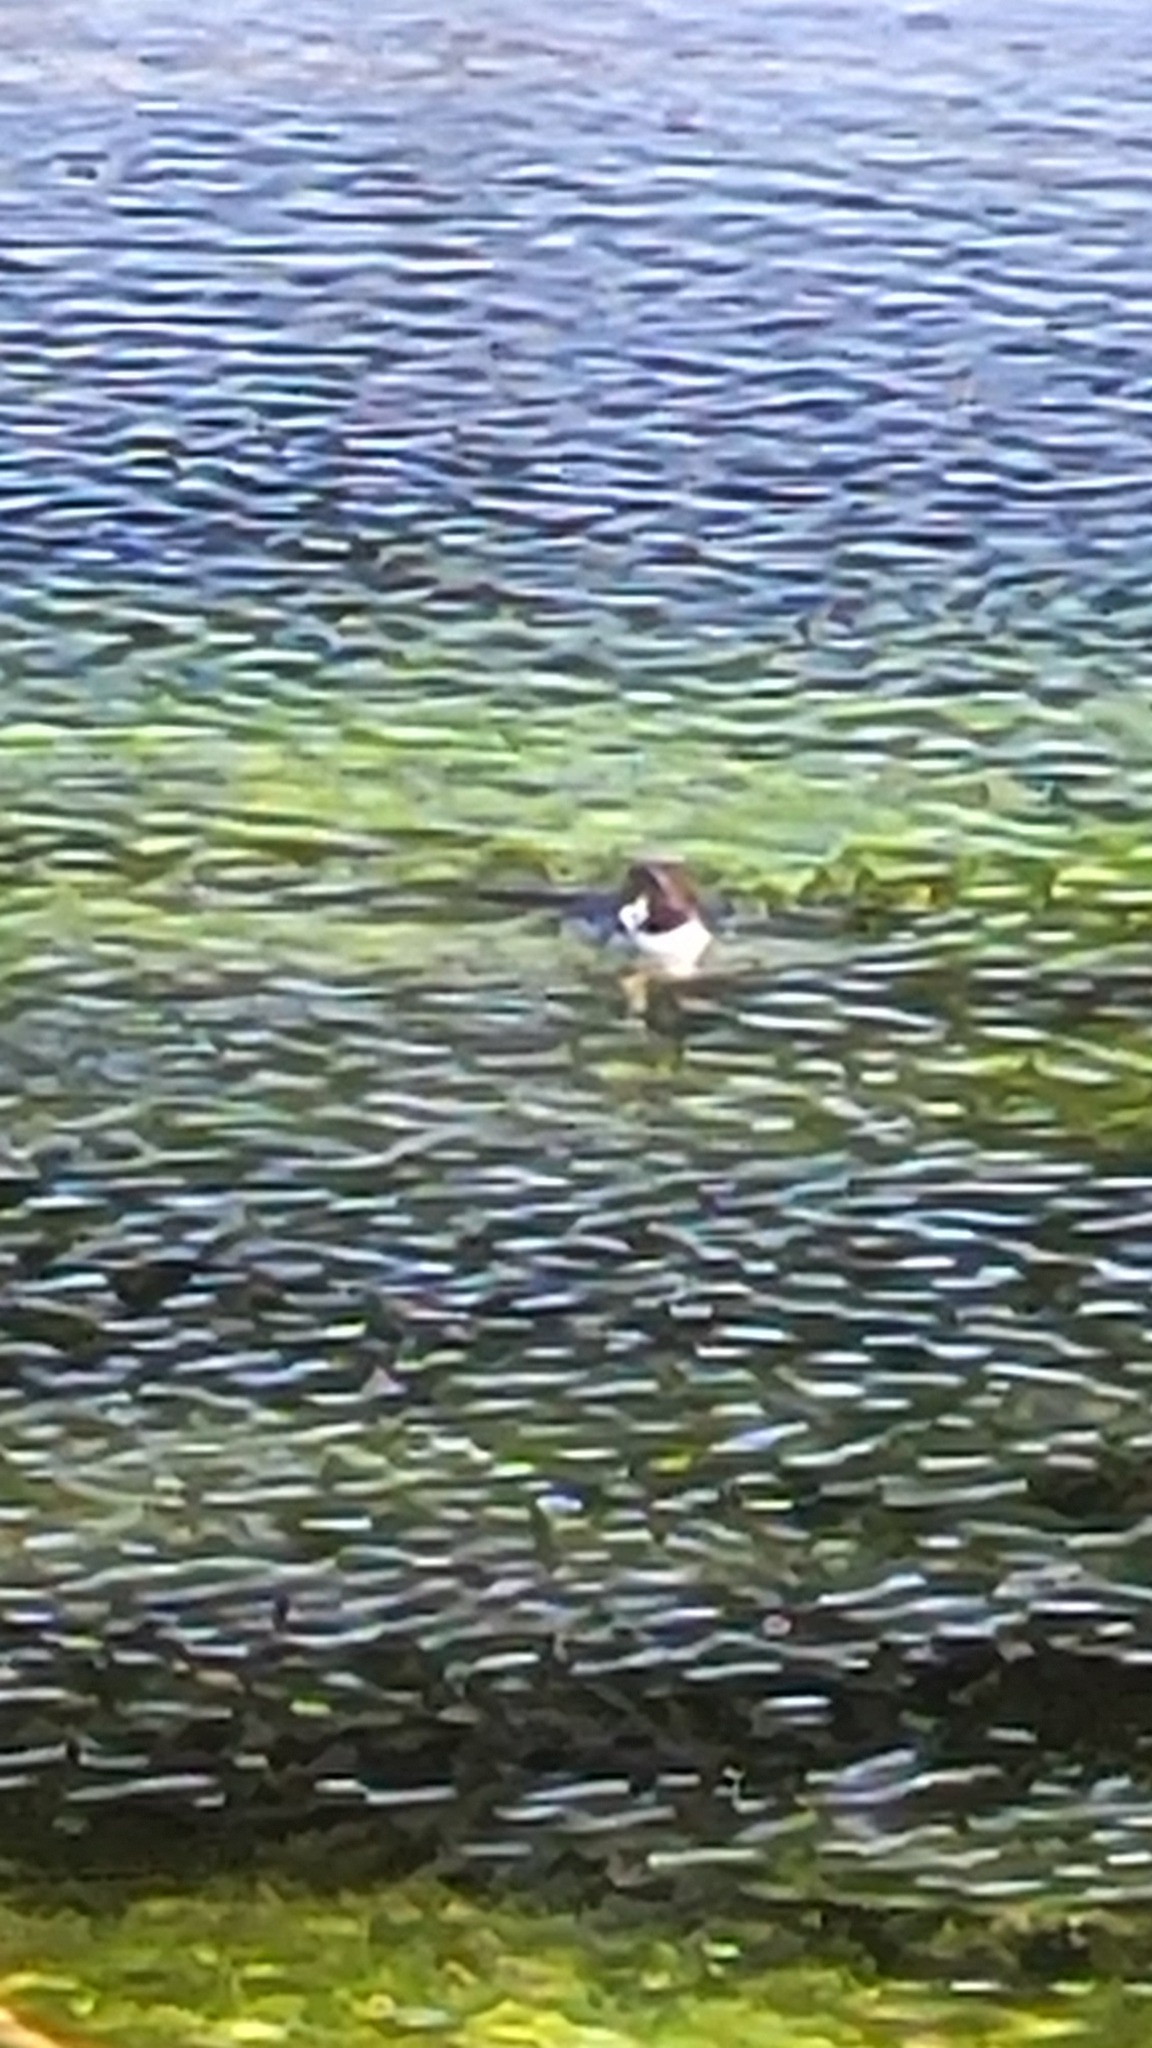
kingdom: Animalia
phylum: Chordata
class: Aves
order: Anseriformes
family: Anatidae
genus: Bucephala
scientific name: Bucephala islandica
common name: Barrow's goldeneye
